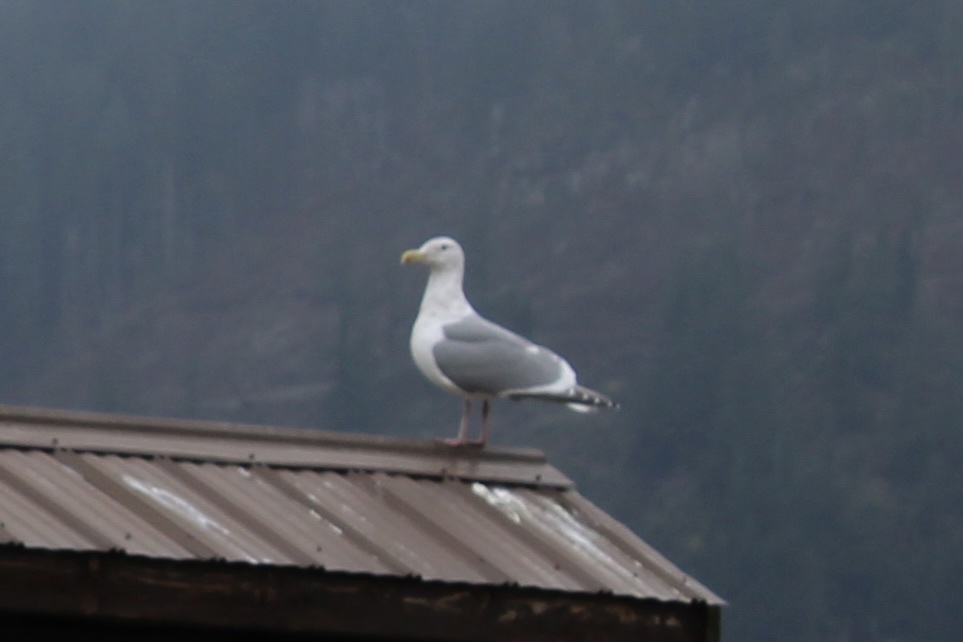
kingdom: Animalia
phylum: Chordata
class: Aves
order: Charadriiformes
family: Laridae
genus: Larus
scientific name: Larus
